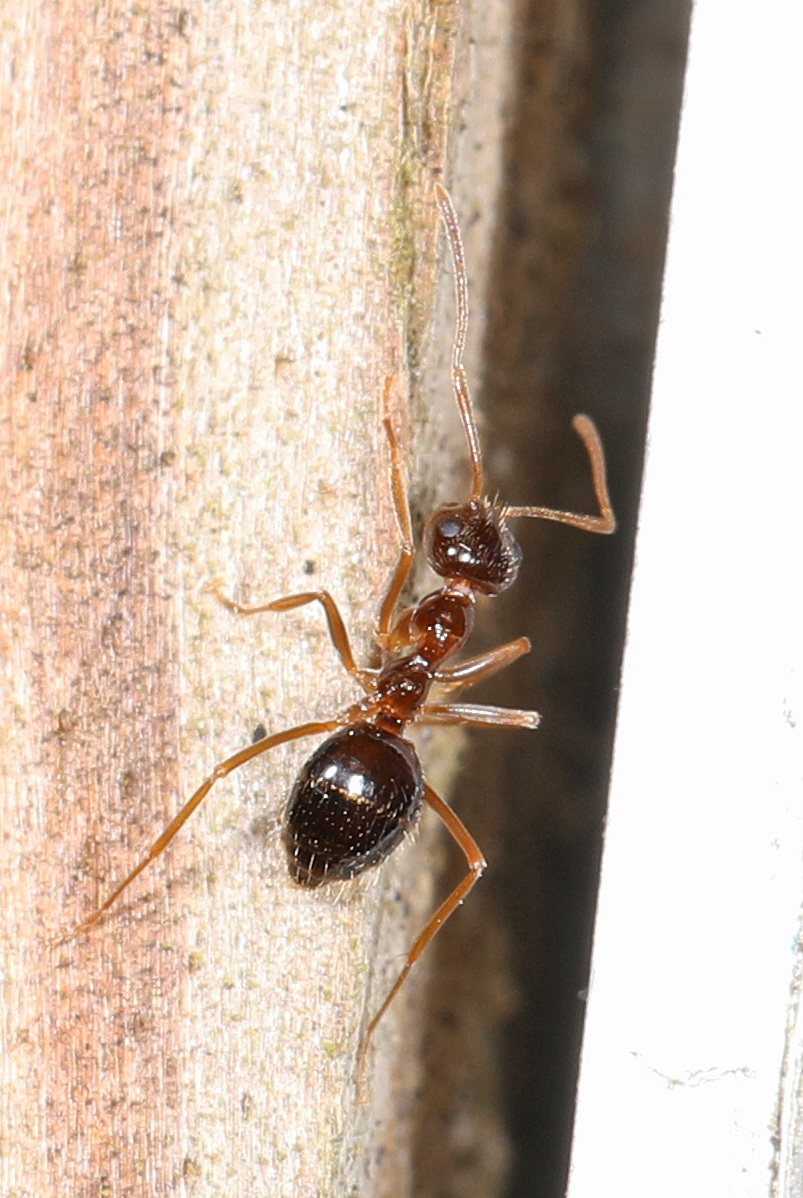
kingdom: Animalia
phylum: Arthropoda
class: Insecta
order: Hymenoptera
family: Formicidae
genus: Prenolepis
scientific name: Prenolepis imparis
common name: Small honey ant
